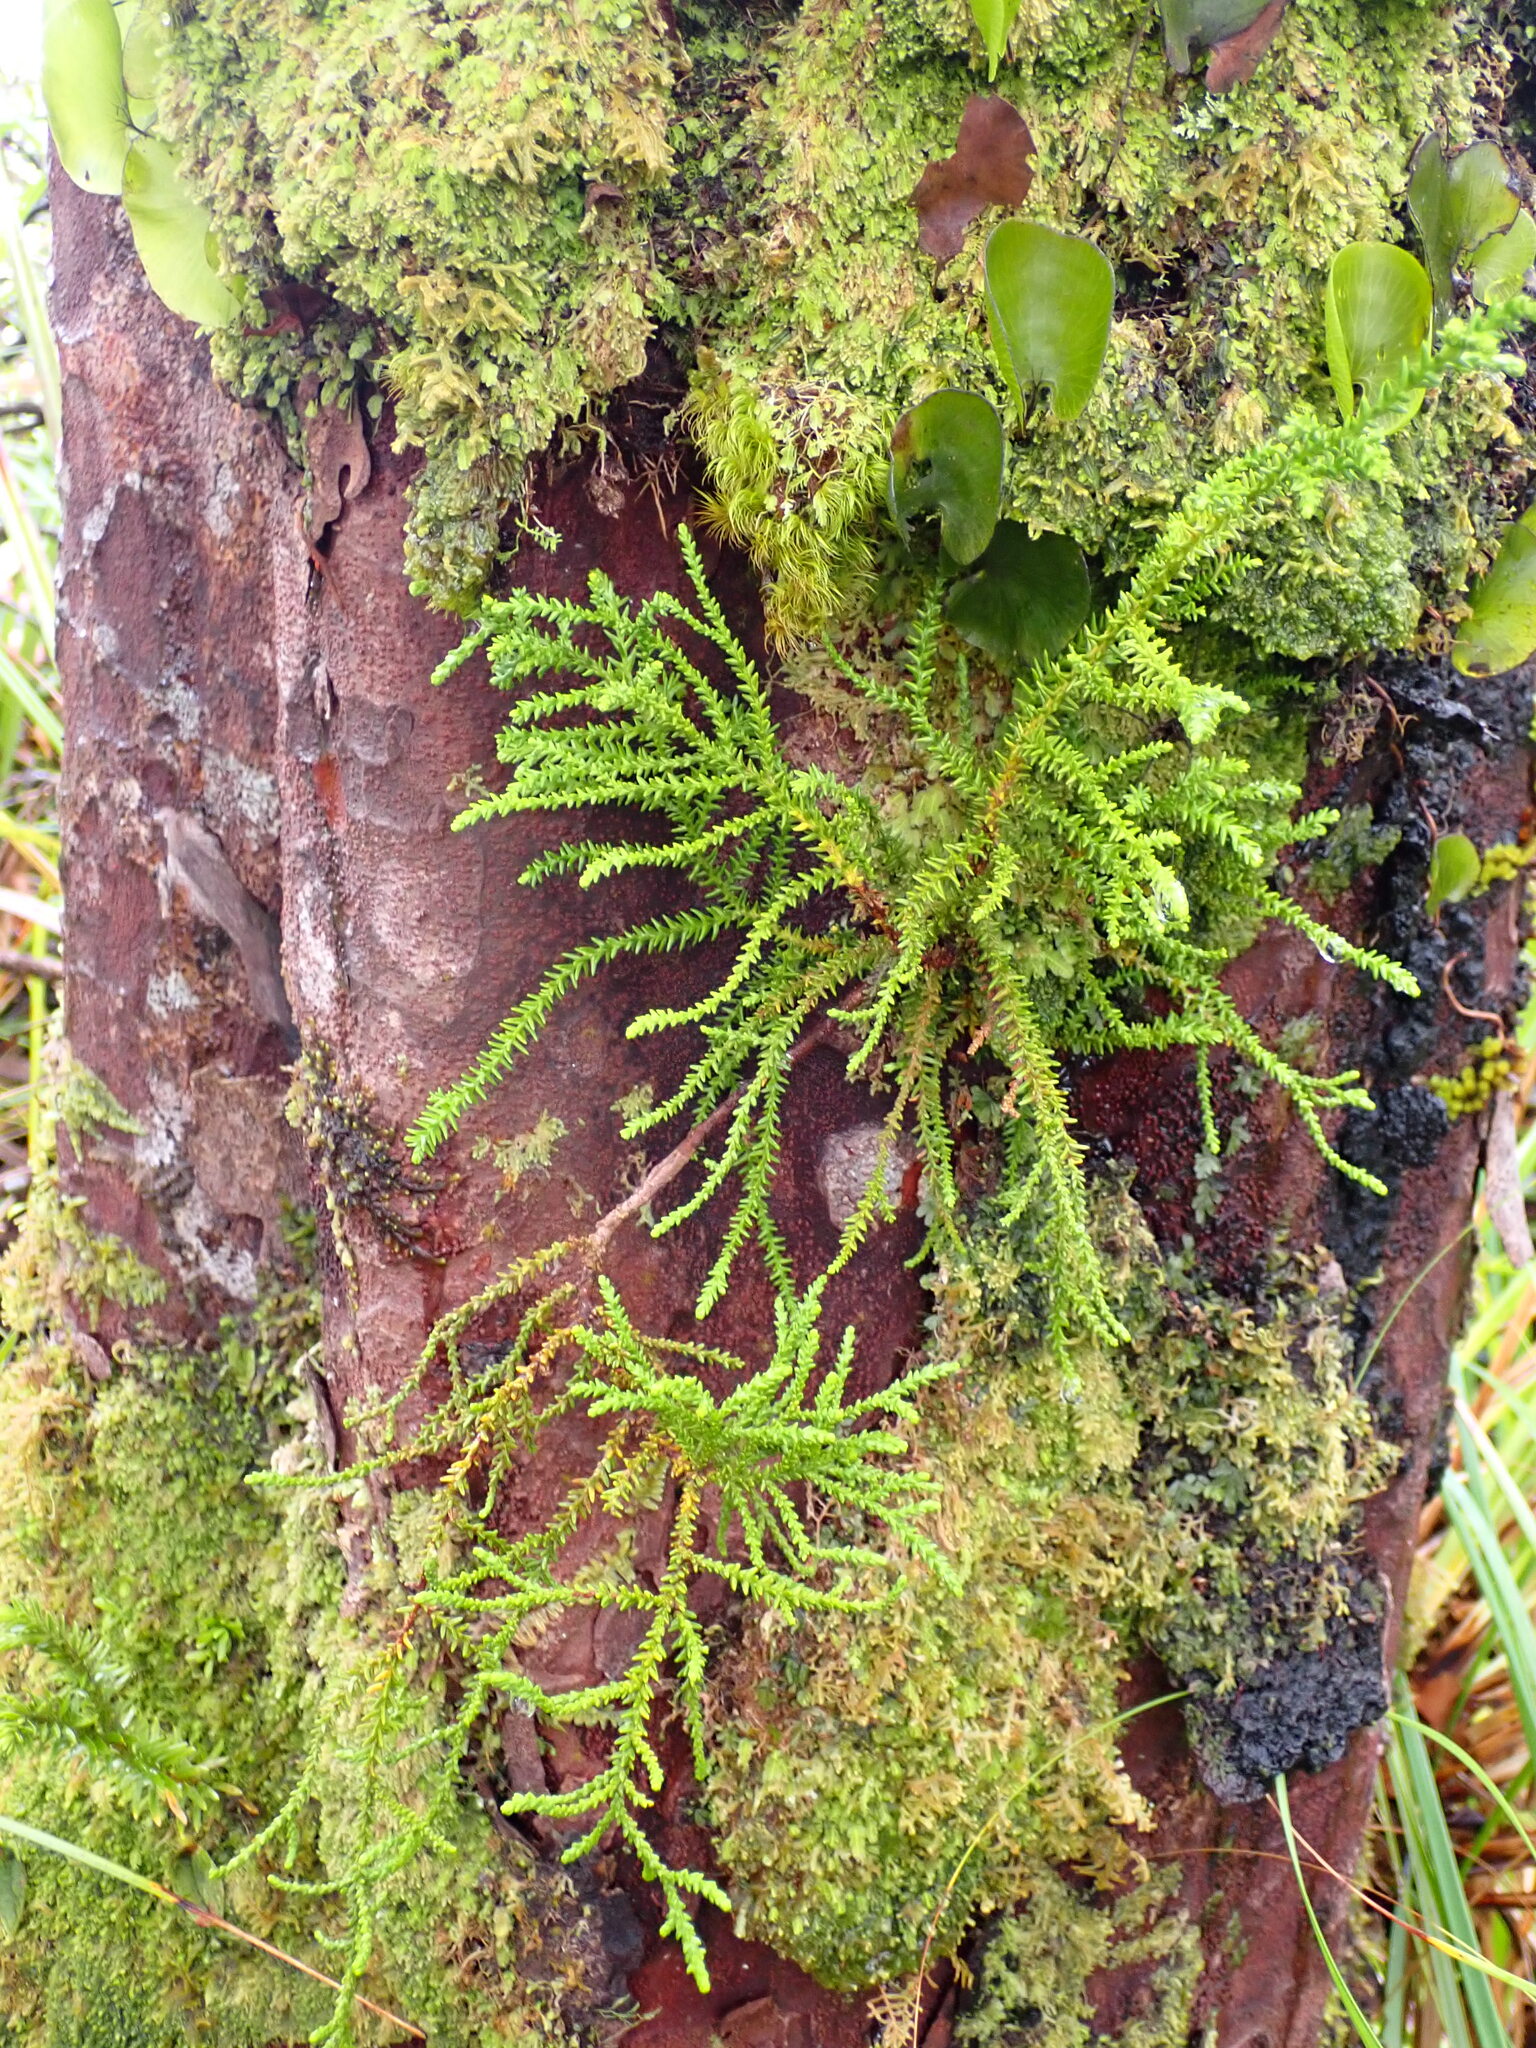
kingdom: Plantae
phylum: Tracheophyta
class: Pinopsida
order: Pinales
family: Podocarpaceae
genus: Lepidothamnus
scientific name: Lepidothamnus intermedius
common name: Yellow silver pine
